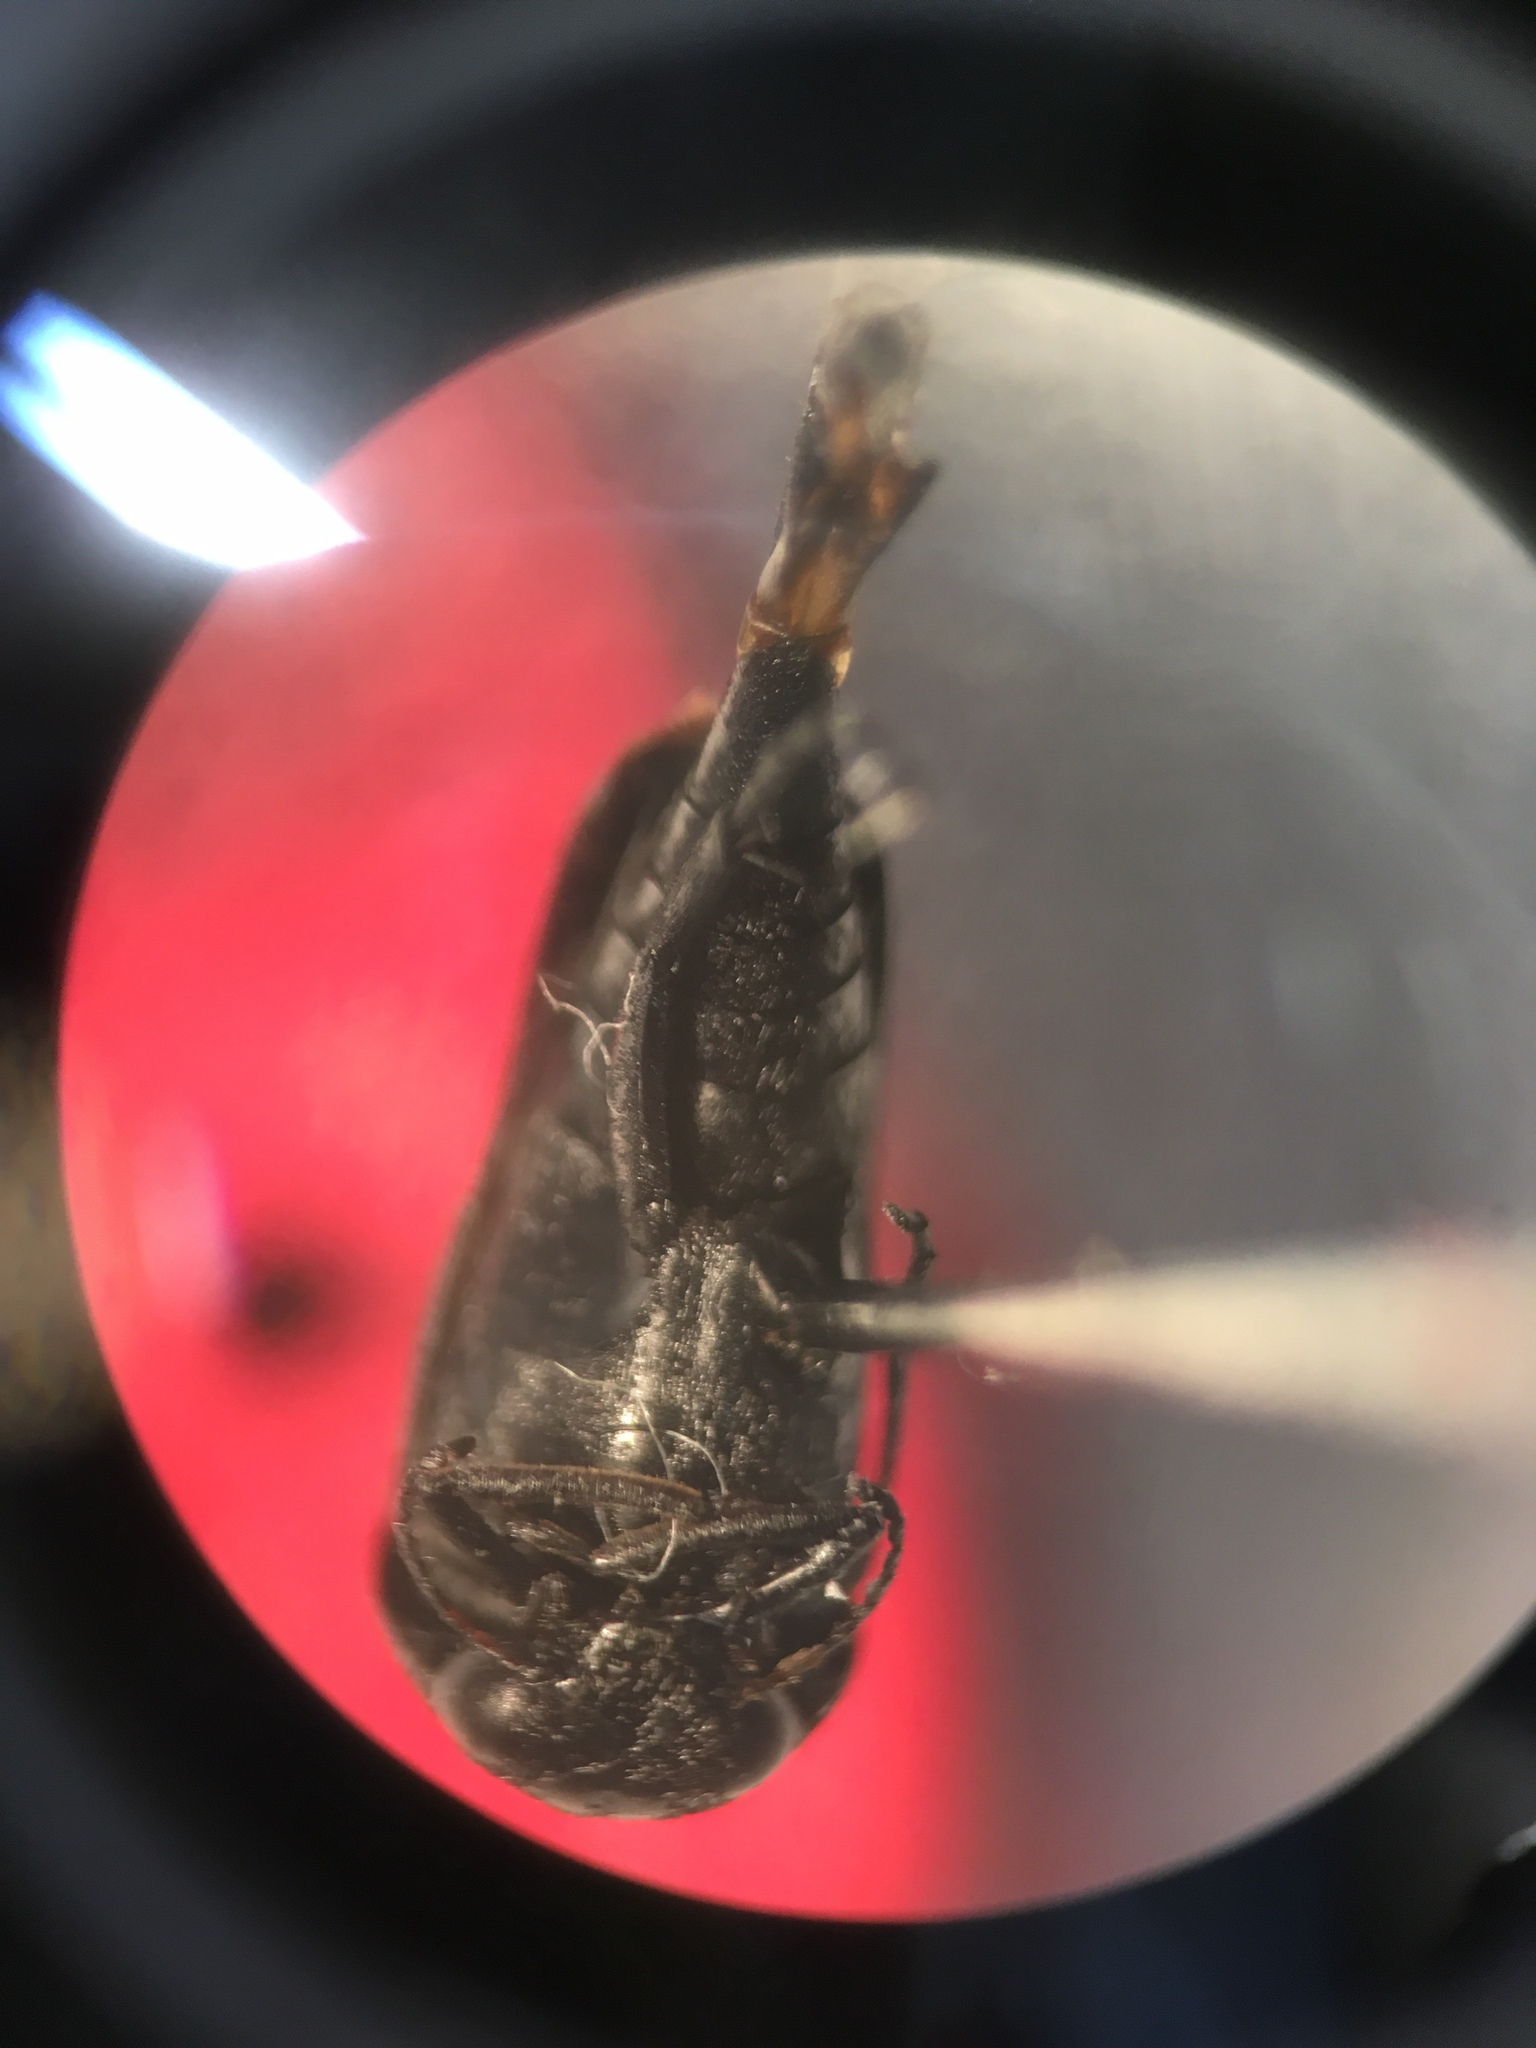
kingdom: Animalia
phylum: Arthropoda
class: Insecta
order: Coleoptera
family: Mordellidae
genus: Mordella
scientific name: Mordella
